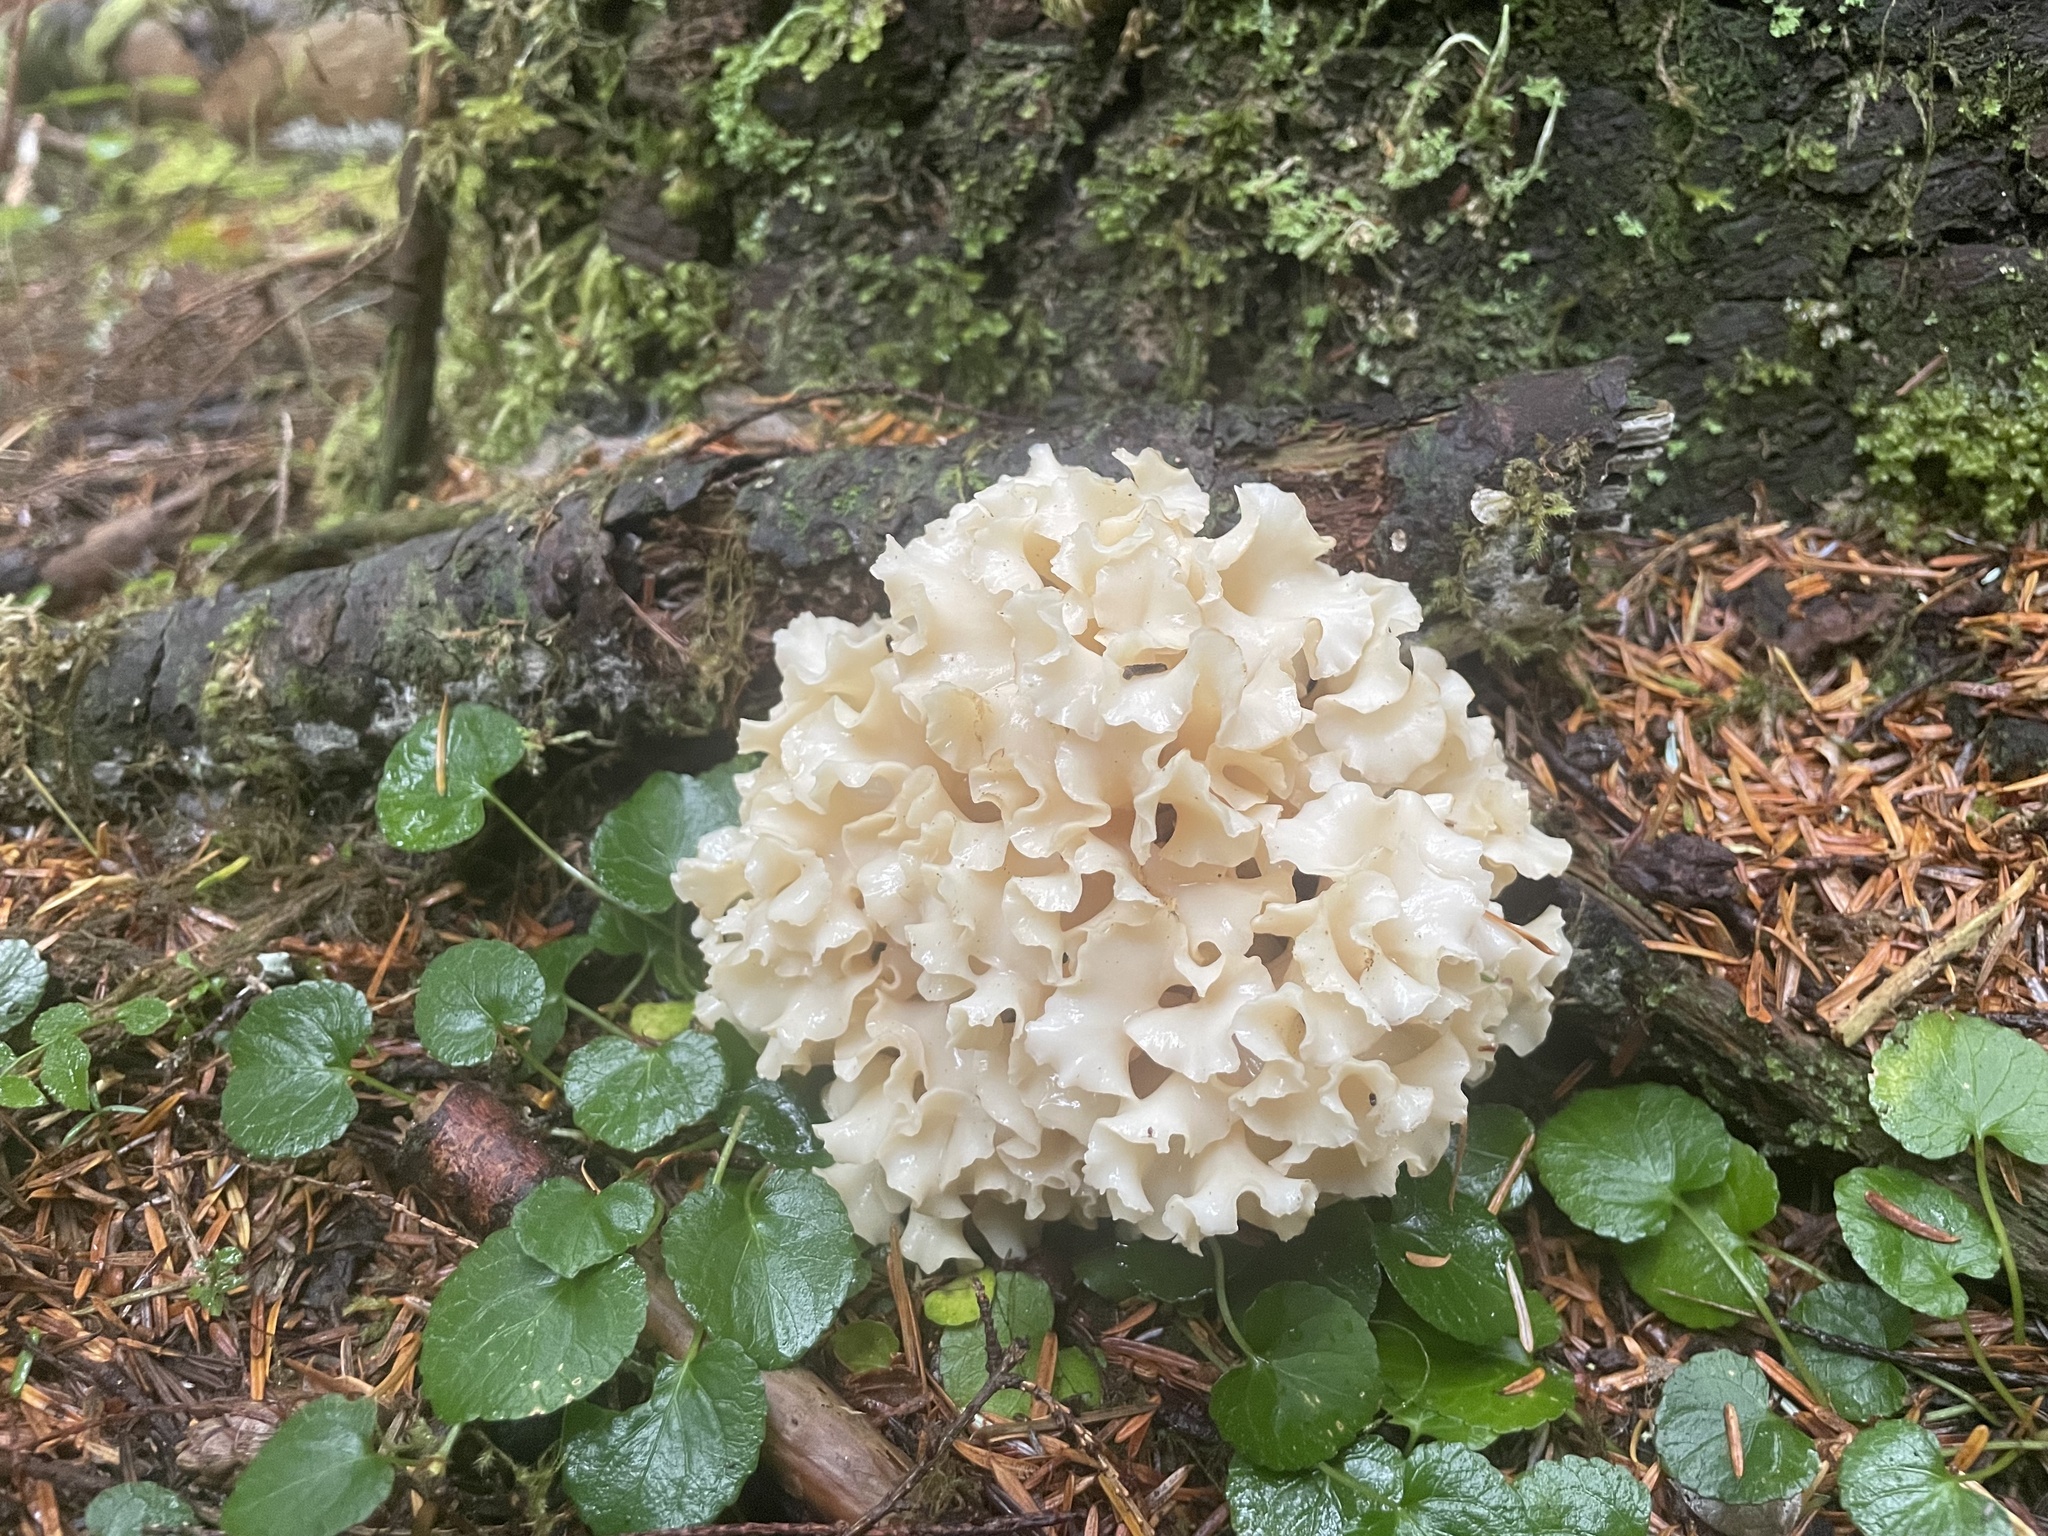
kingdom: Fungi
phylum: Basidiomycota
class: Agaricomycetes
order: Polyporales
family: Sparassidaceae
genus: Sparassis
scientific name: Sparassis radicata
